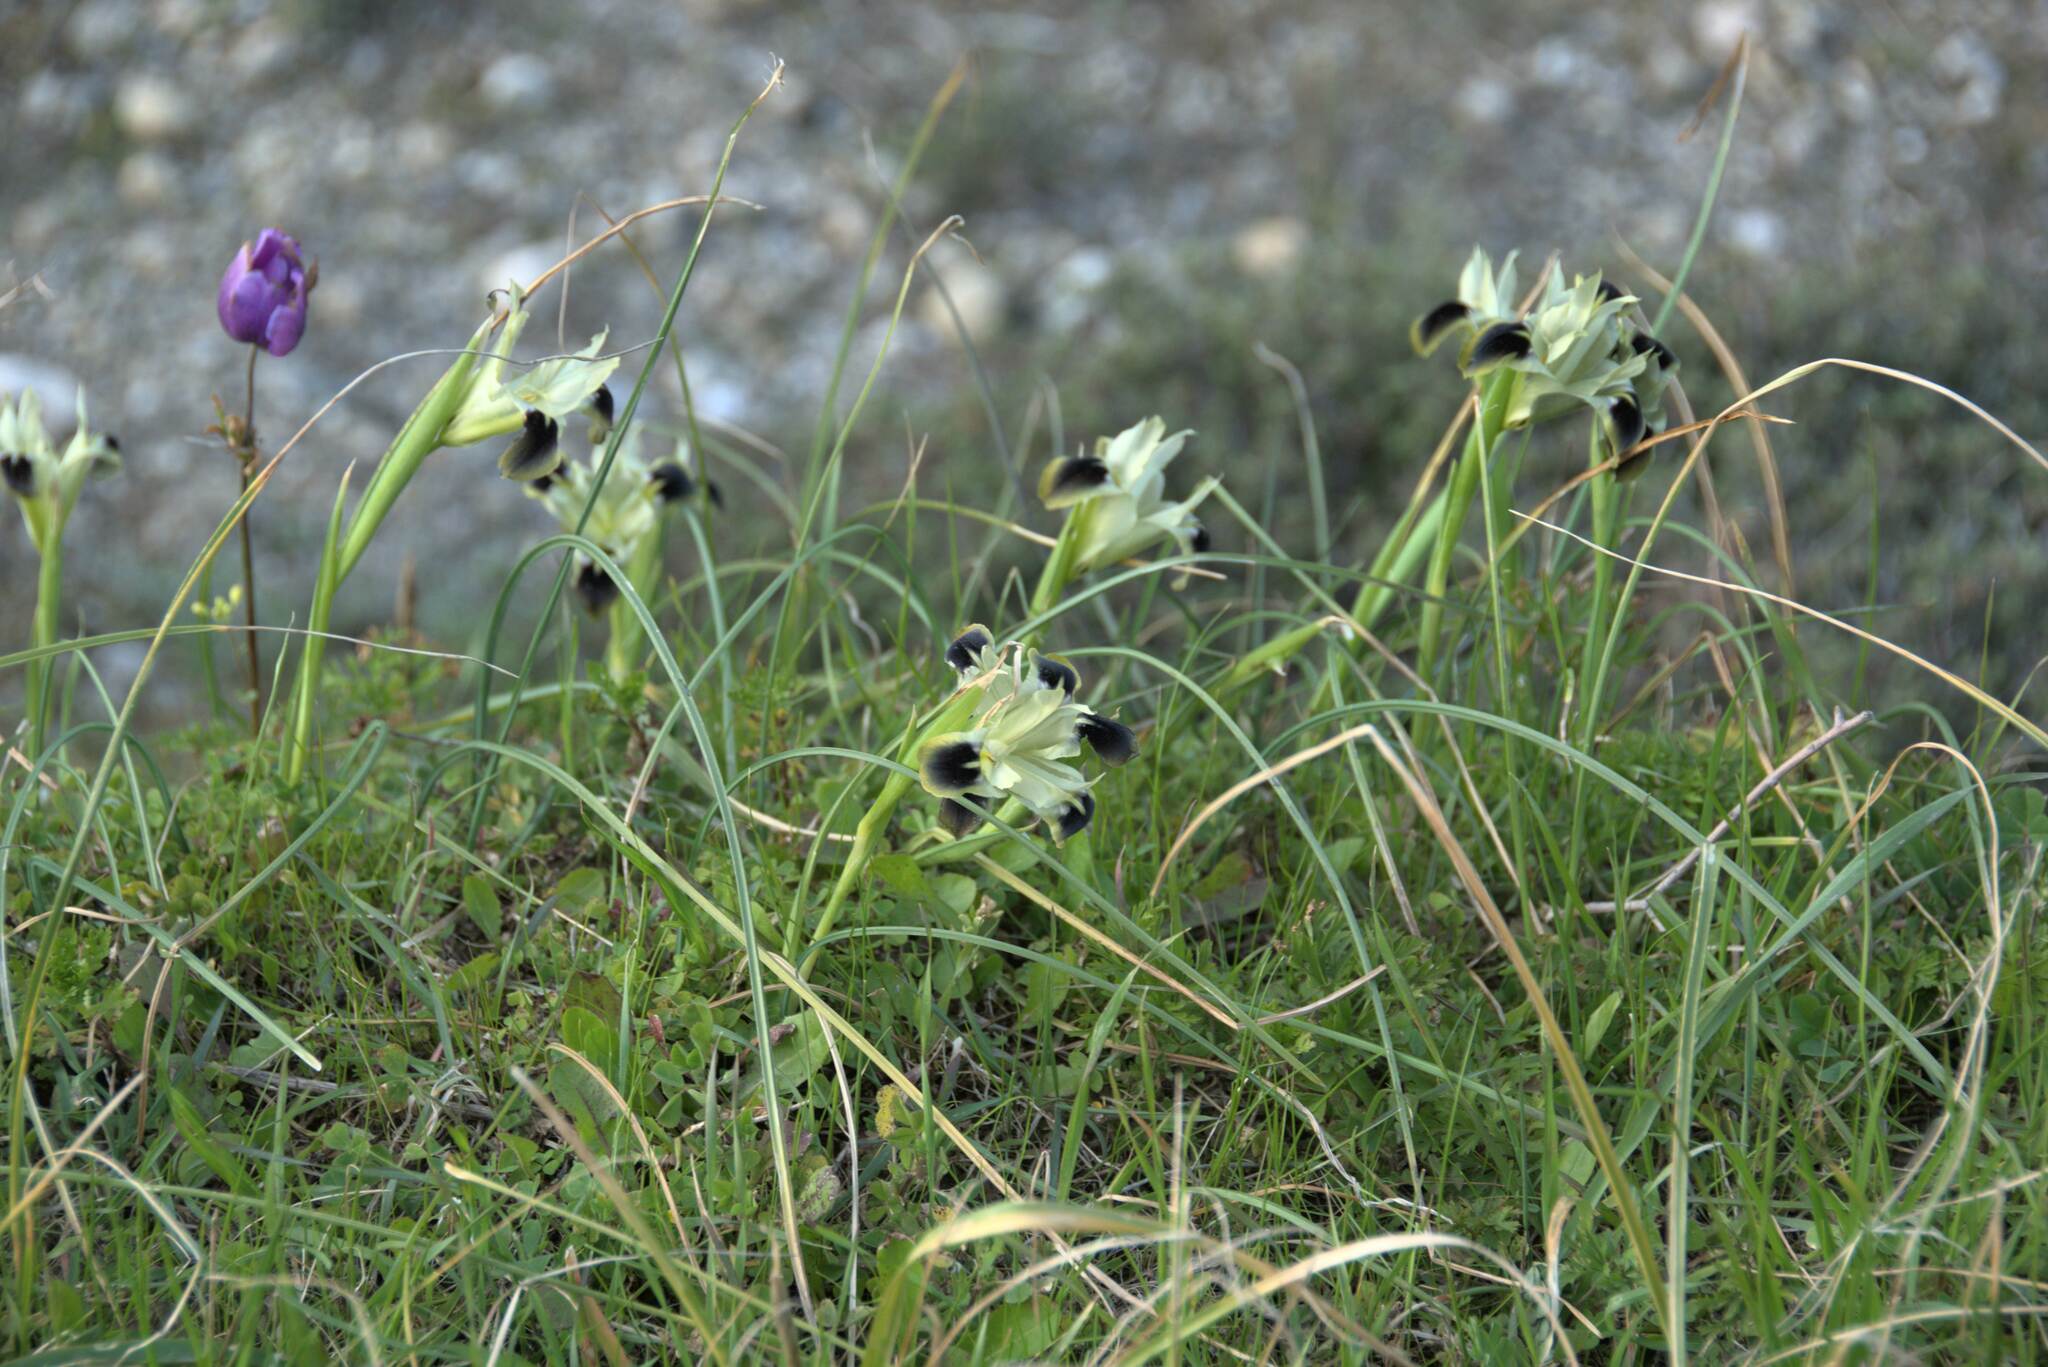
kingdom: Plantae
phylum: Tracheophyta
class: Liliopsida
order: Asparagales
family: Iridaceae
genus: Iris
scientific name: Iris tuberosa
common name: Snake's-head iris
